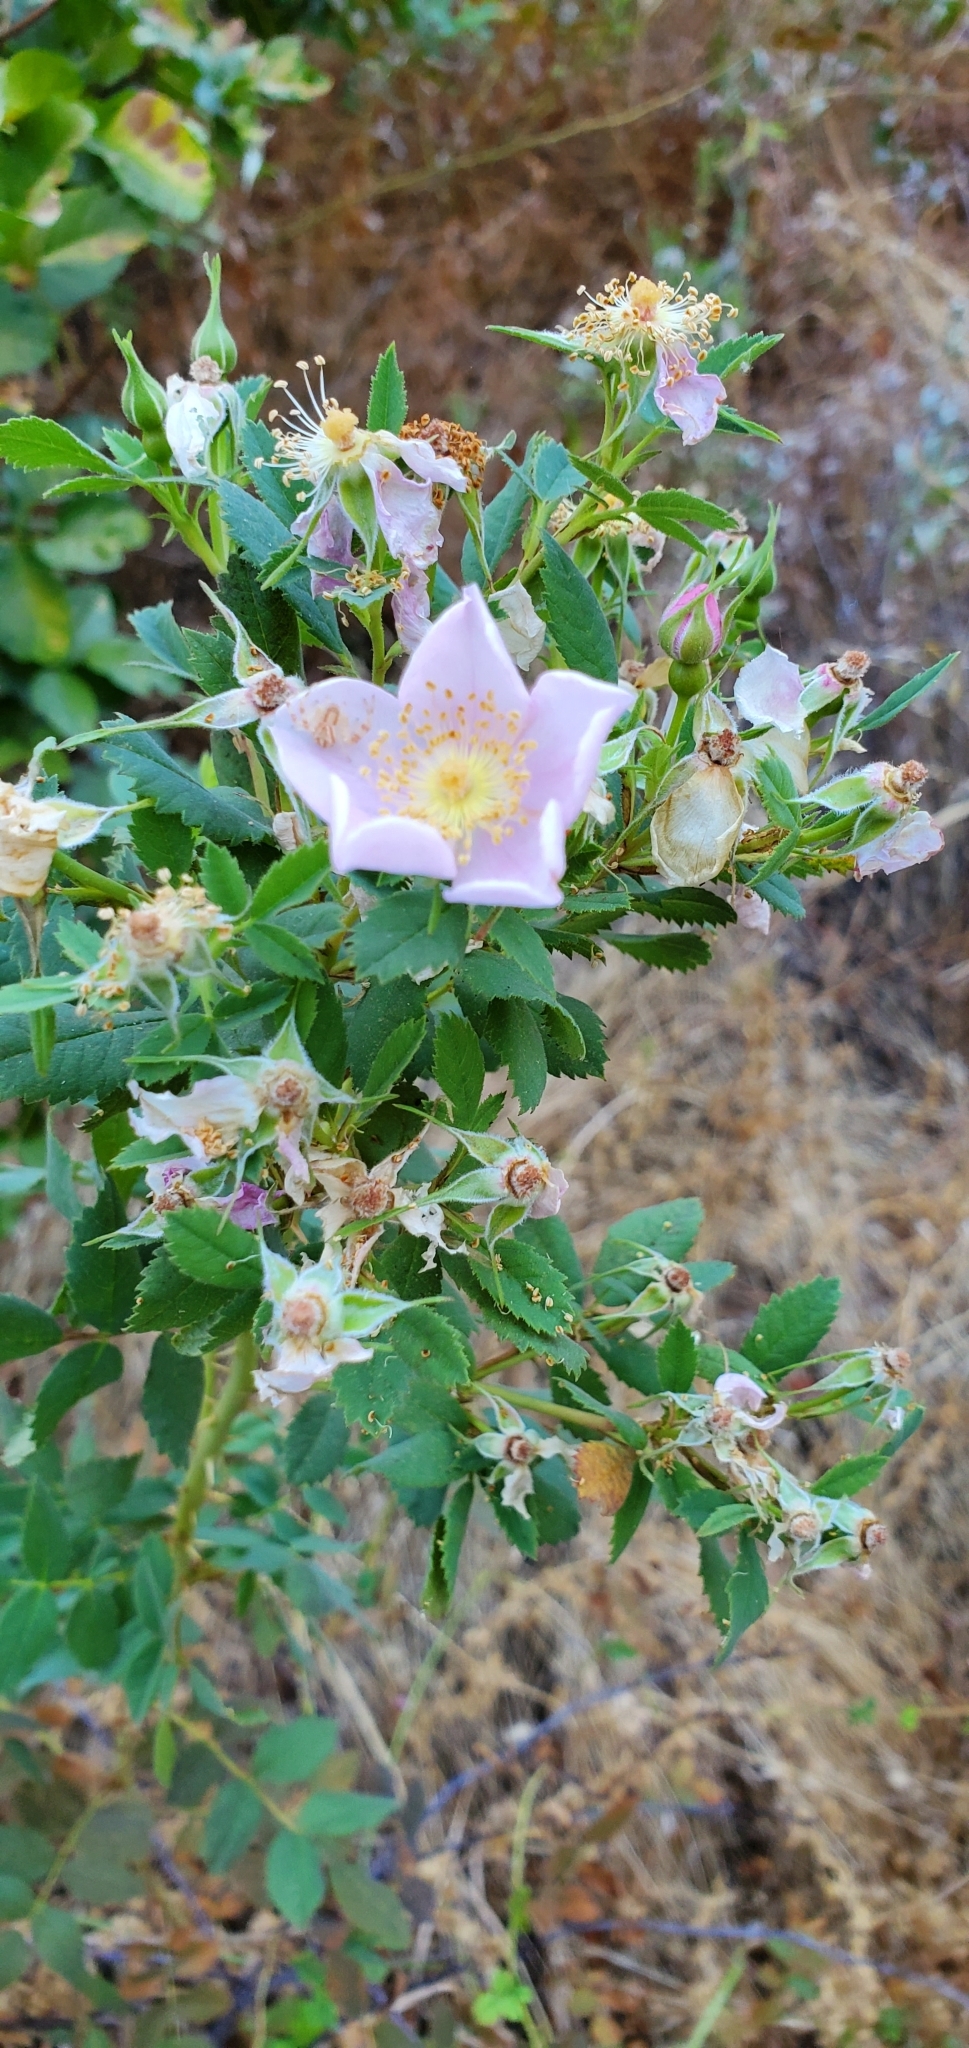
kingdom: Plantae
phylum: Tracheophyta
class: Magnoliopsida
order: Rosales
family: Rosaceae
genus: Rosa
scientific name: Rosa californica
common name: California rose
